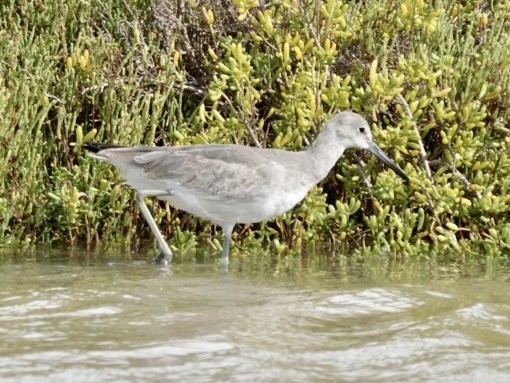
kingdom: Animalia
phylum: Chordata
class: Aves
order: Charadriiformes
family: Scolopacidae
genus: Tringa
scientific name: Tringa semipalmata
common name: Willet
